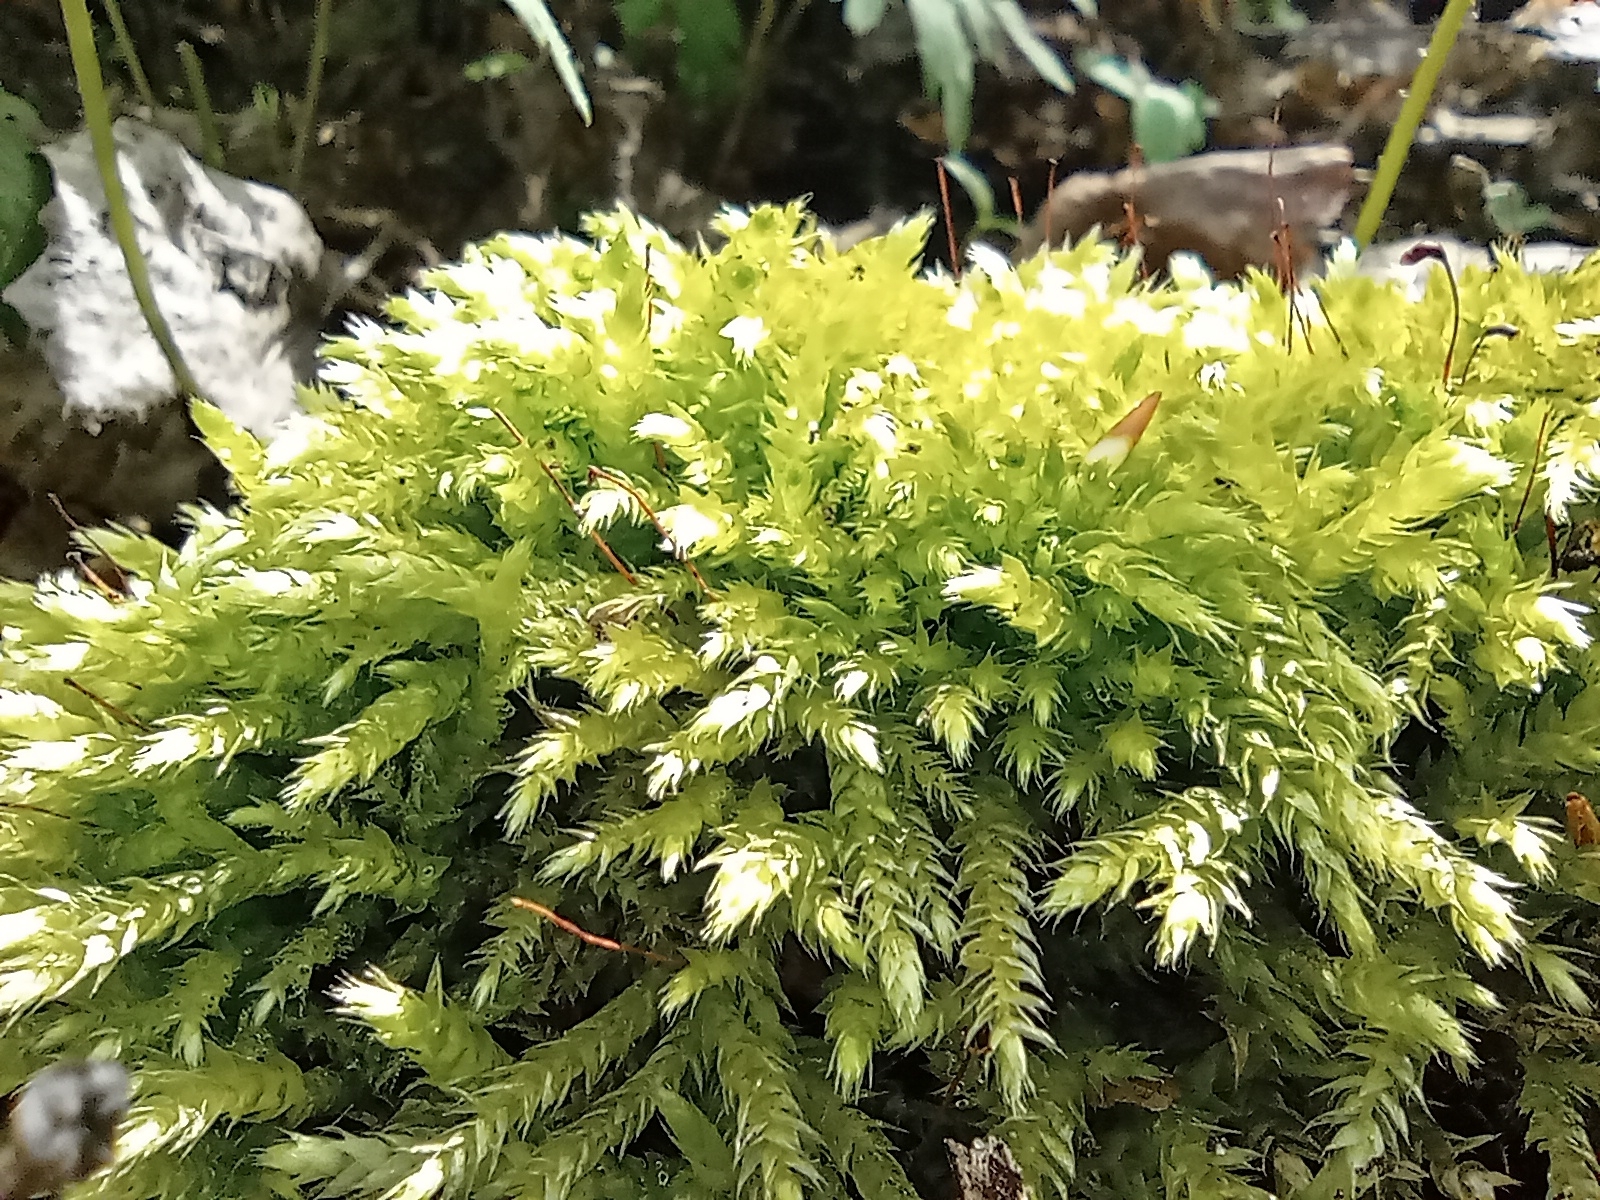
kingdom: Plantae
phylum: Bryophyta
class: Bryopsida
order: Hypnales
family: Brachytheciaceae
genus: Brachythecium
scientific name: Brachythecium rutabulum
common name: Rough-stalked feather-moss
